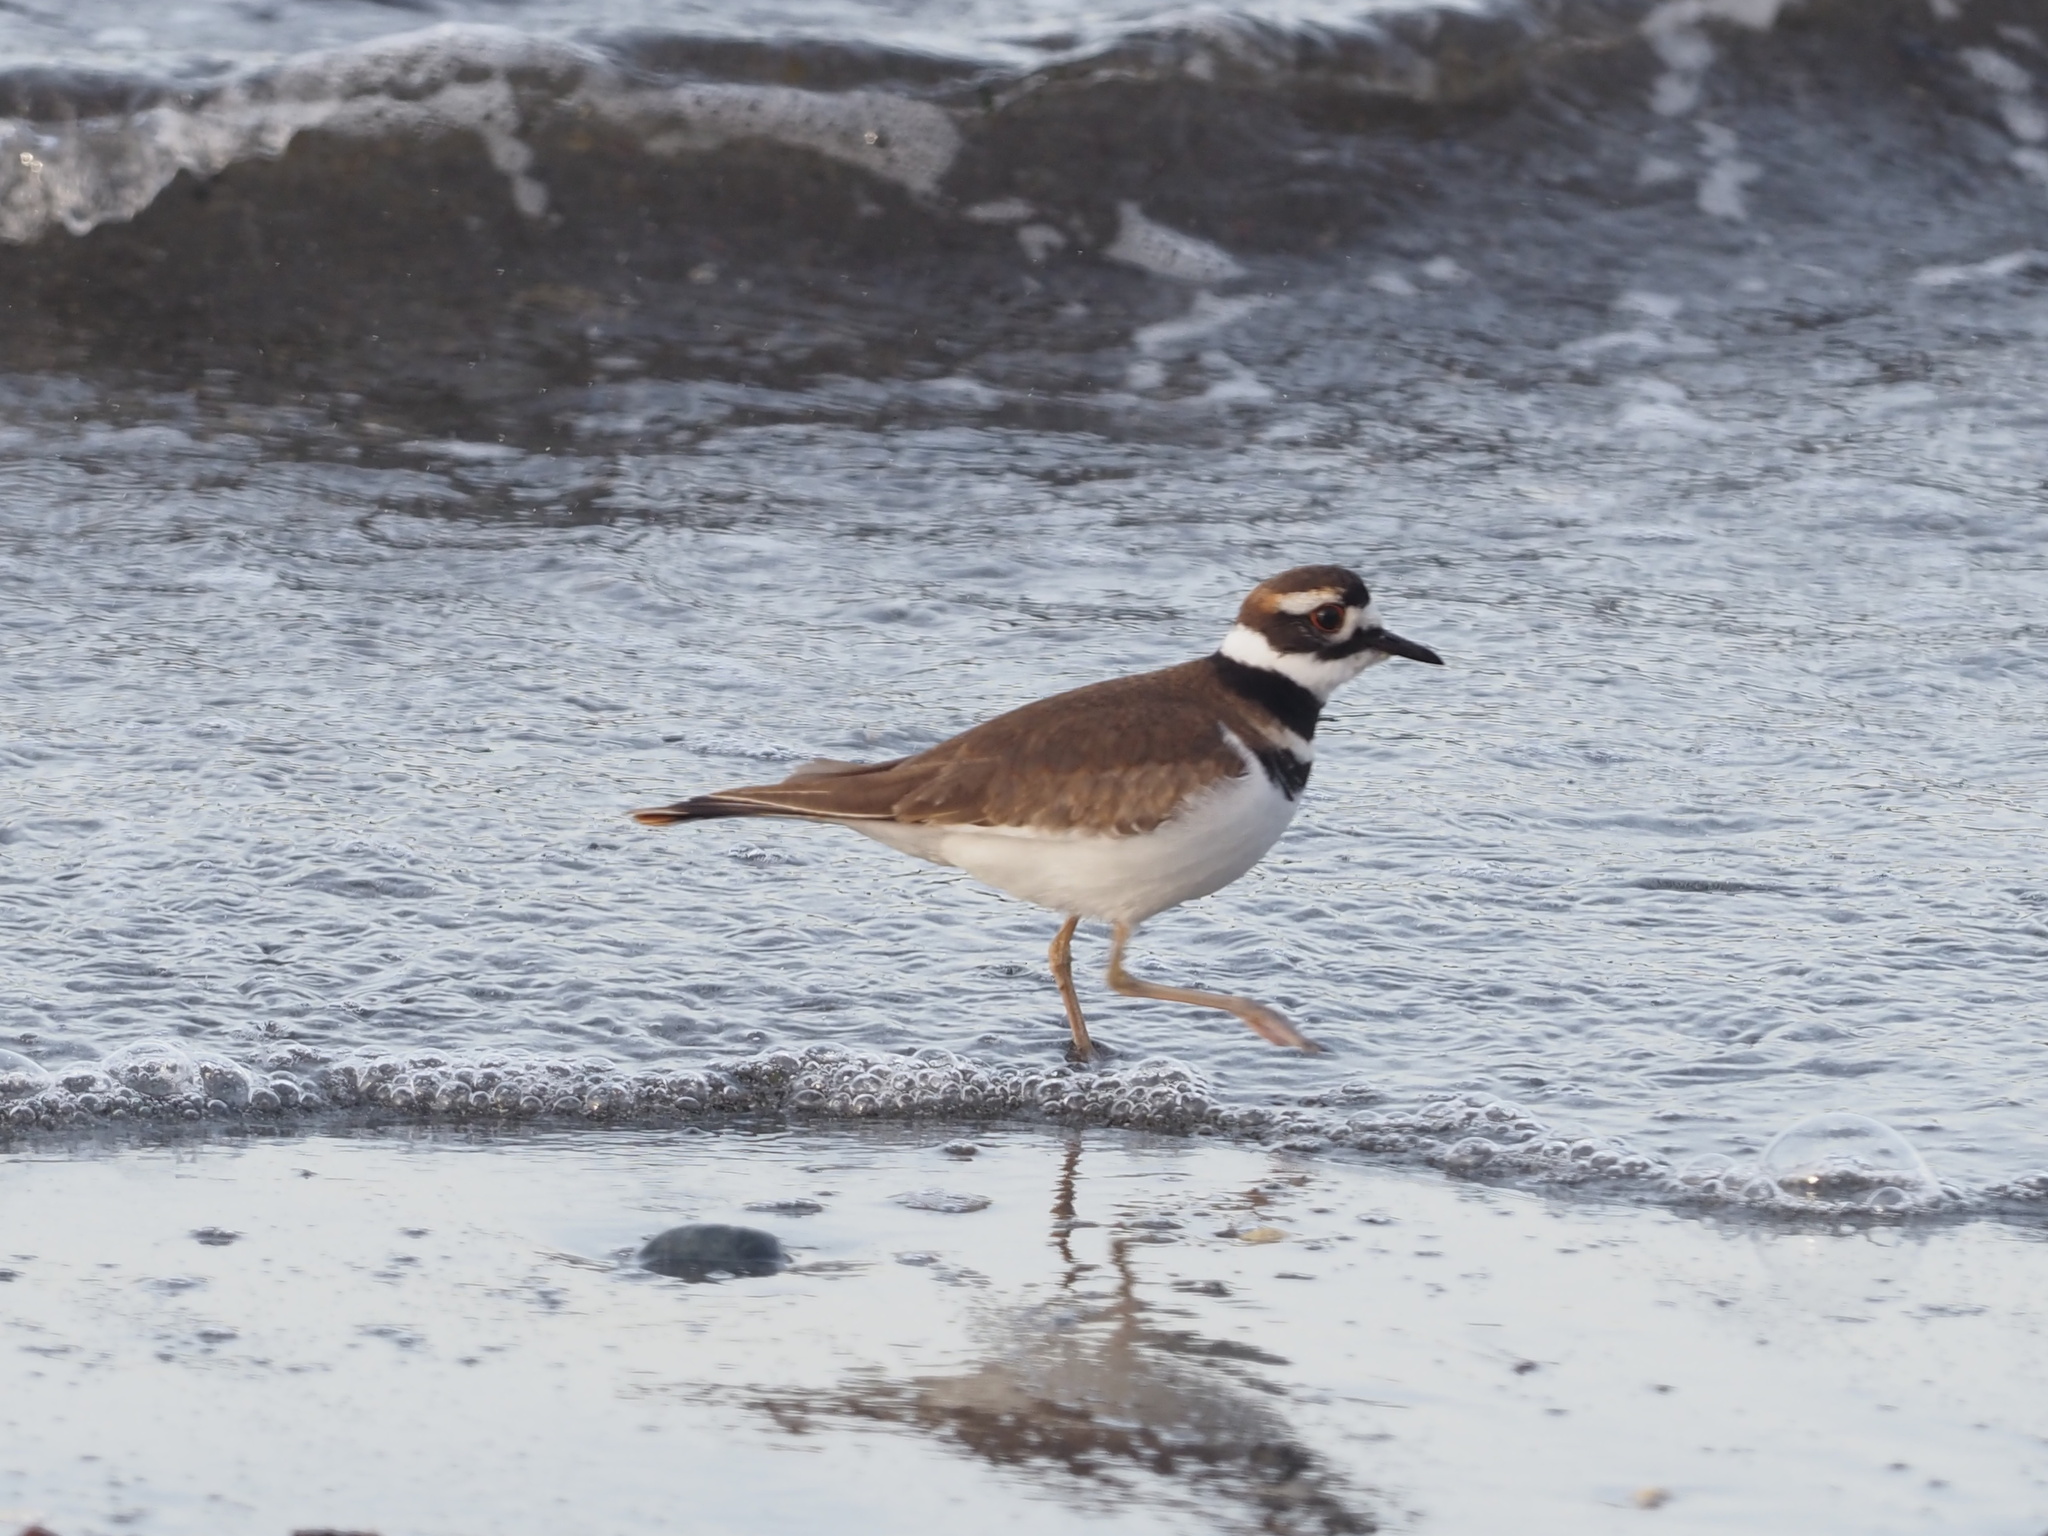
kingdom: Animalia
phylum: Chordata
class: Aves
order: Charadriiformes
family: Charadriidae
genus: Charadrius
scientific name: Charadrius vociferus
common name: Killdeer
